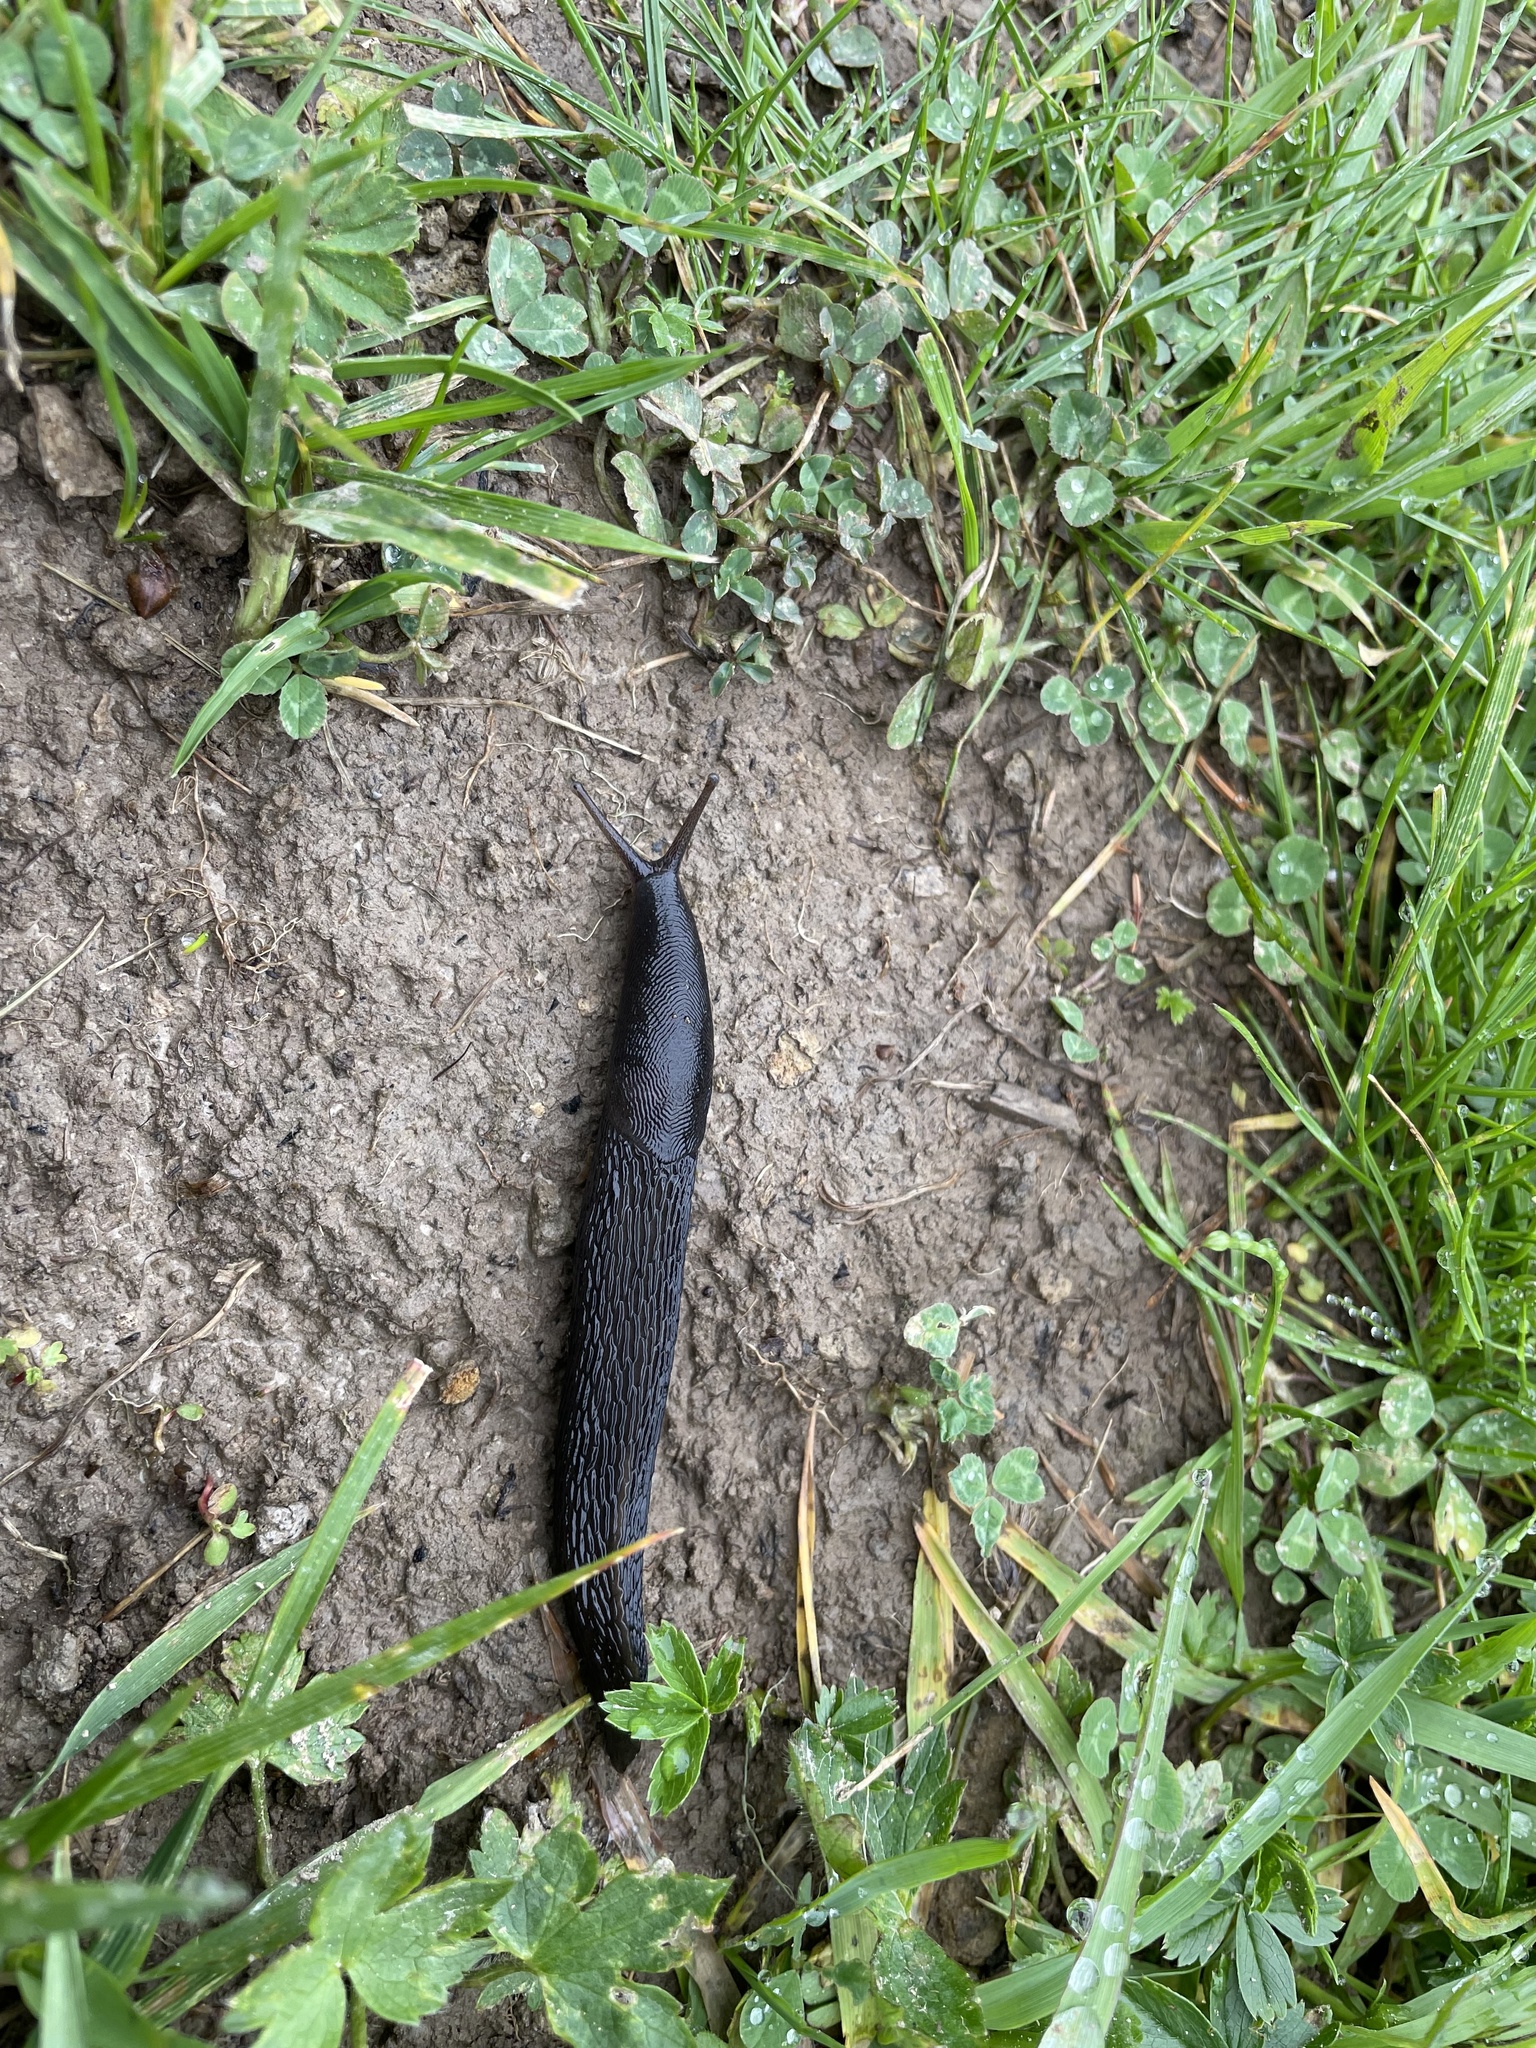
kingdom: Animalia
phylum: Mollusca
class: Gastropoda
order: Stylommatophora
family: Limacidae
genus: Limax
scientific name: Limax cinereoniger
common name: Ash-black slug
